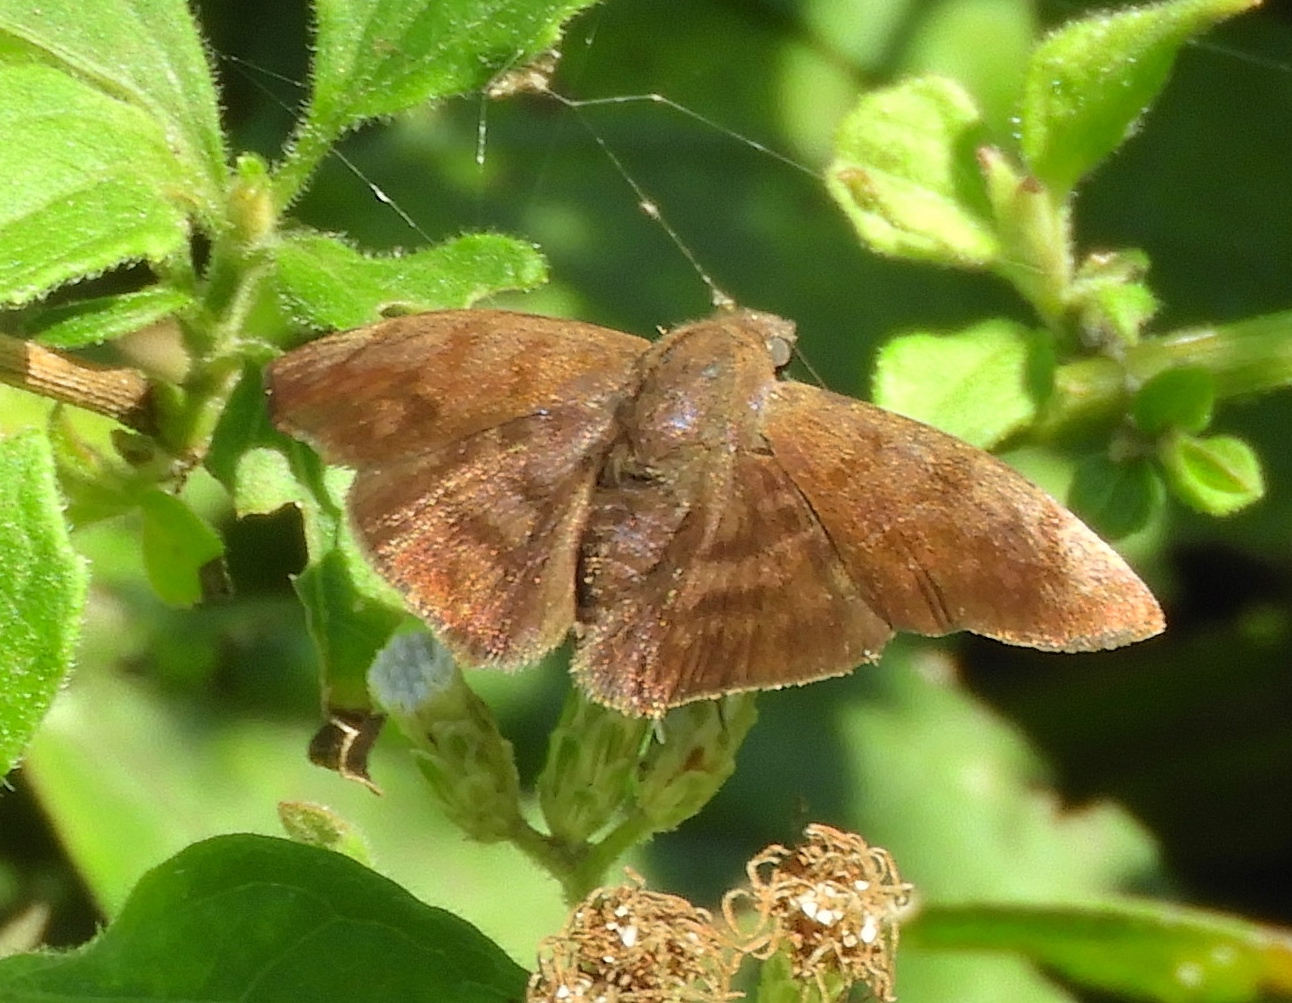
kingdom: Animalia
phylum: Arthropoda
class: Insecta
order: Lepidoptera
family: Hesperiidae
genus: Pellicia
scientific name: Pellicia
